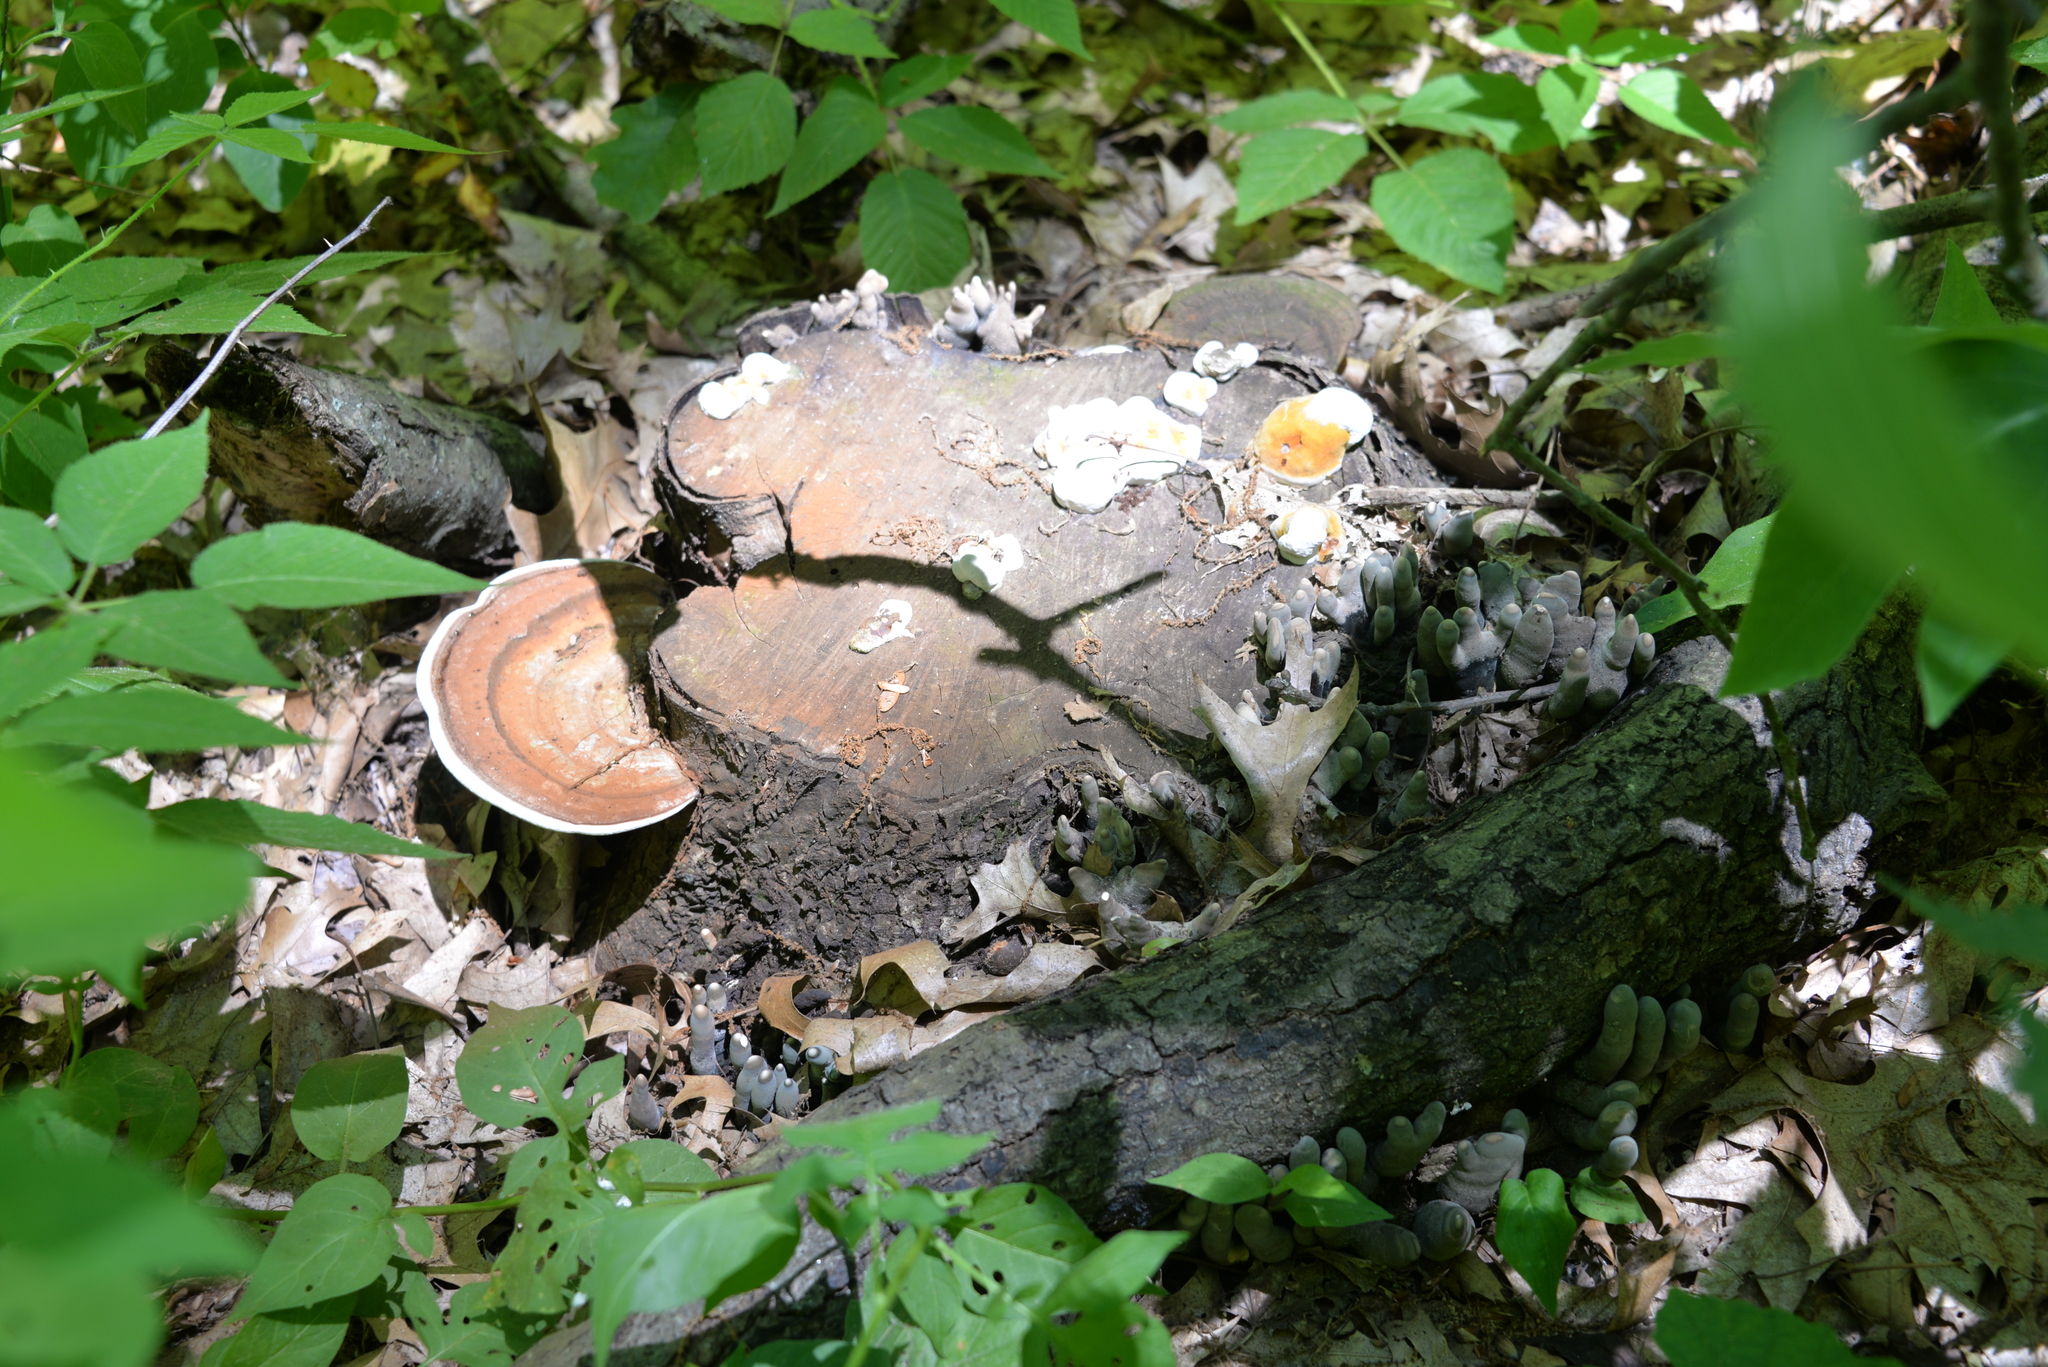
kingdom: Fungi
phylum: Ascomycota
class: Sordariomycetes
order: Xylariales
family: Xylariaceae
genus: Xylaria
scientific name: Xylaria polymorpha
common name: Dead man's fingers
